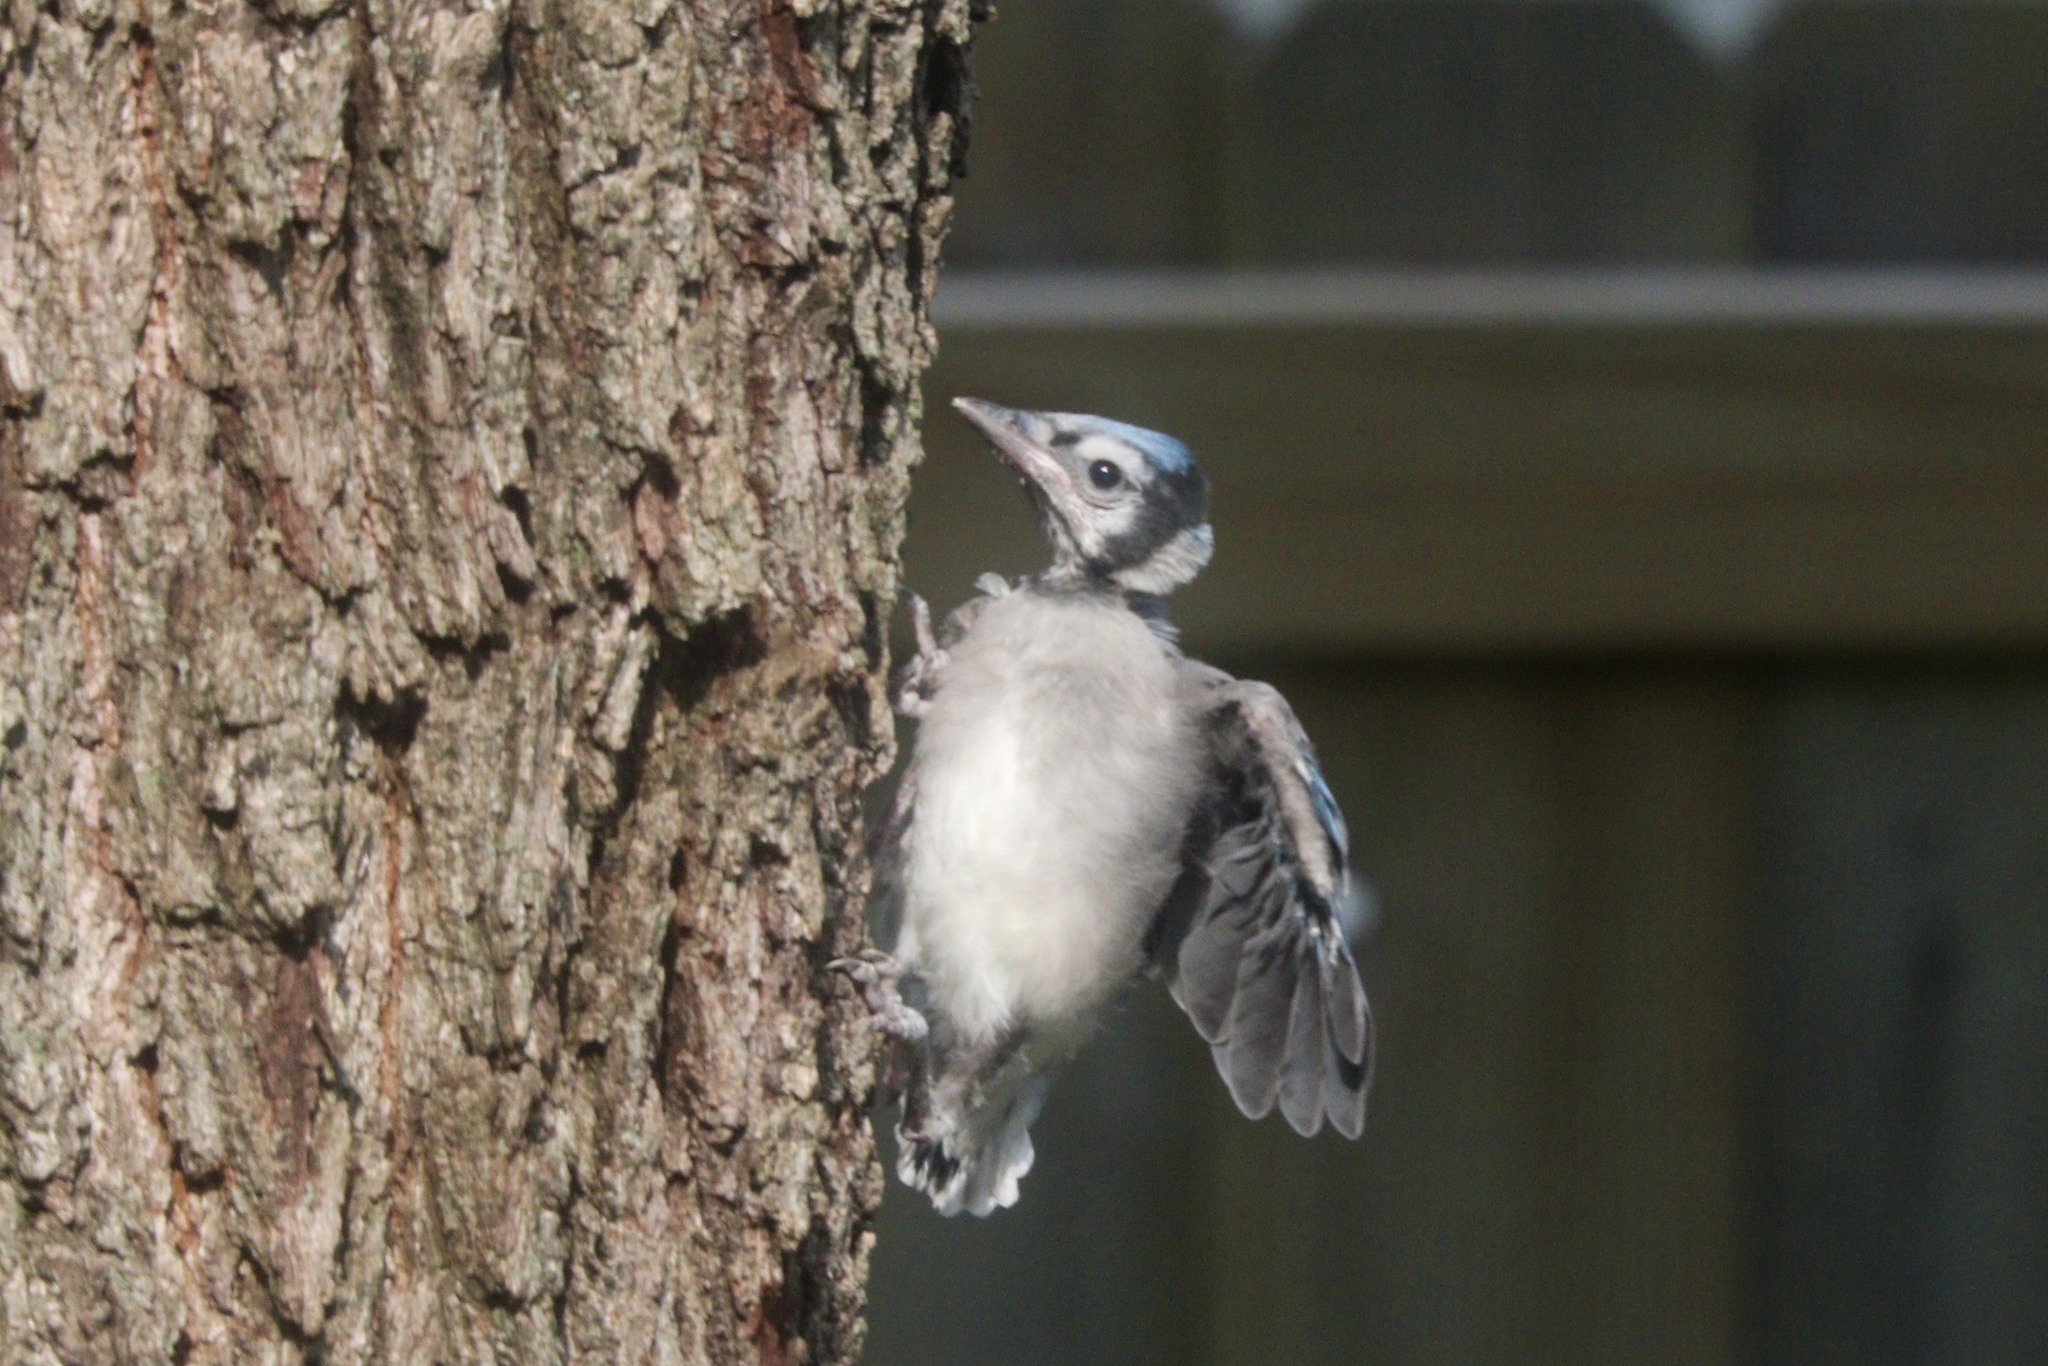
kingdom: Animalia
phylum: Chordata
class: Aves
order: Passeriformes
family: Corvidae
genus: Cyanocitta
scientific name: Cyanocitta cristata
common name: Blue jay
